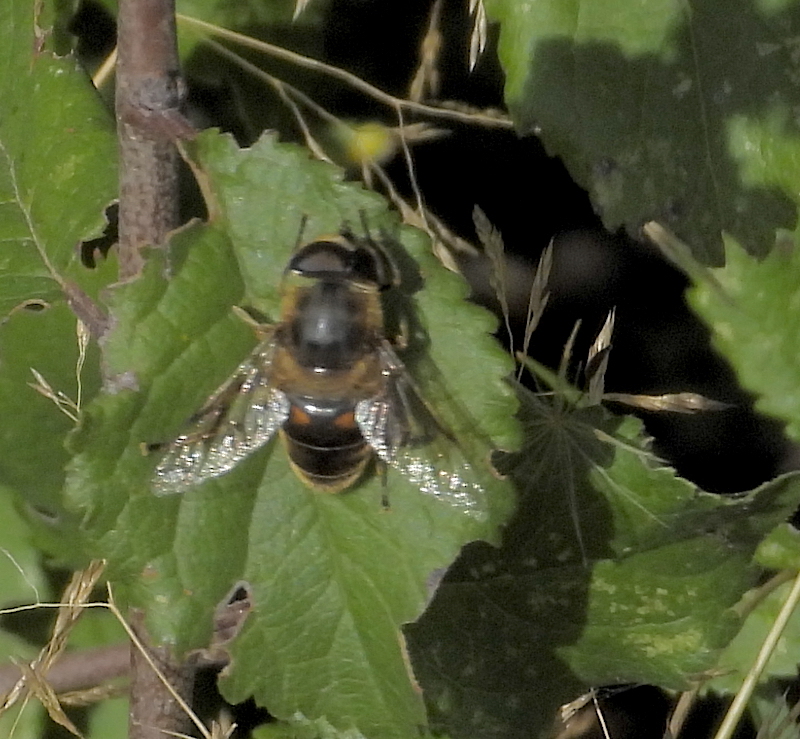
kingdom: Animalia
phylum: Arthropoda
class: Insecta
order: Diptera
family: Syrphidae
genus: Eristalis
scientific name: Eristalis tenax
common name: Drone fly
